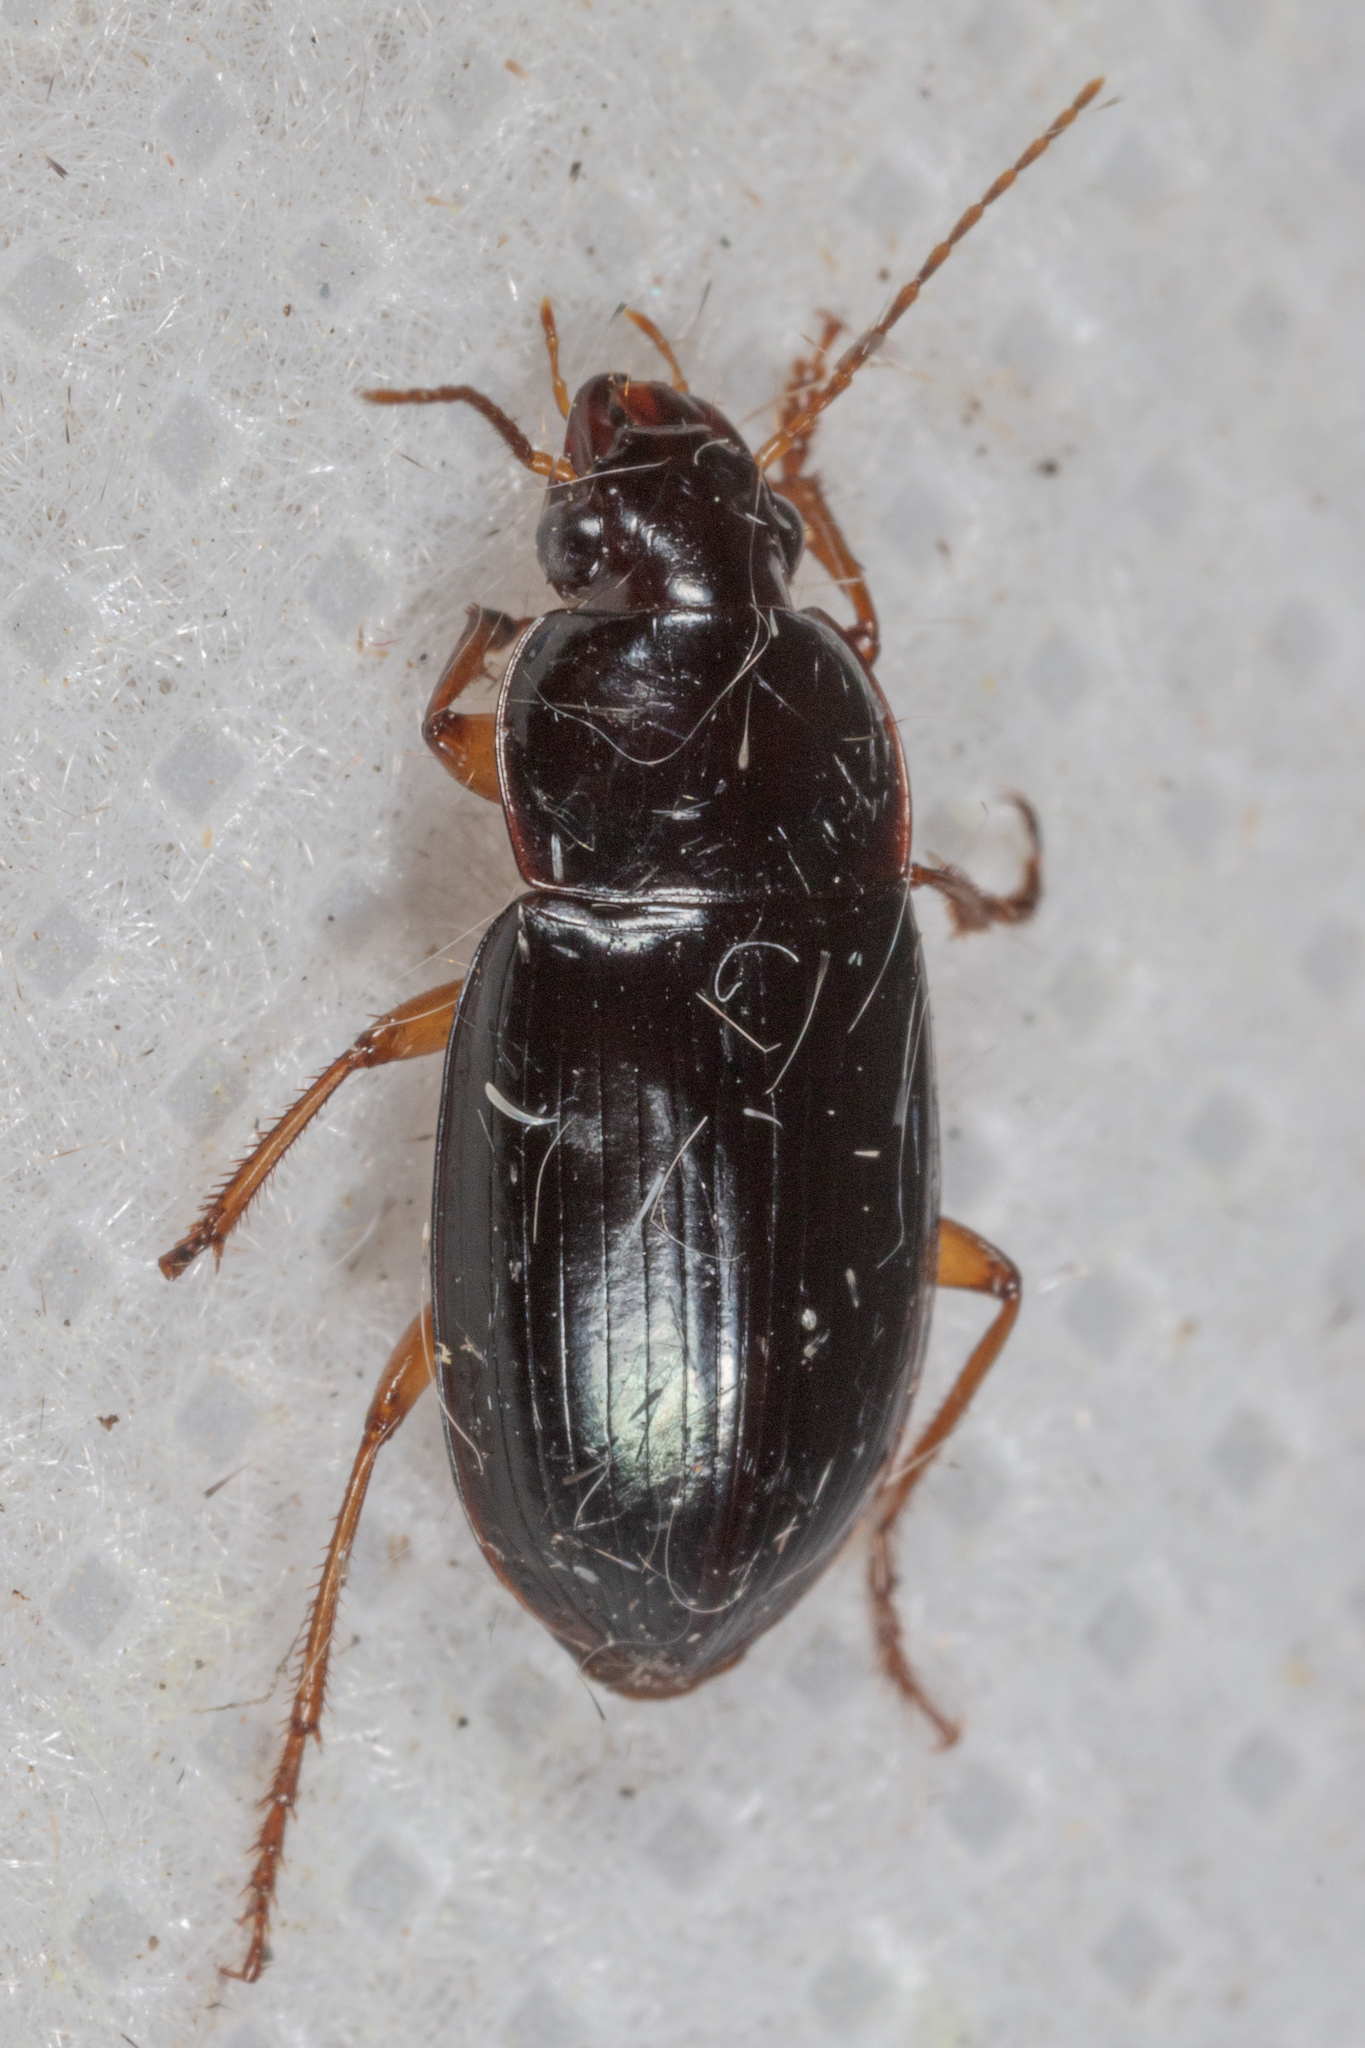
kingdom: Animalia
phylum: Arthropoda
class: Insecta
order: Coleoptera
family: Carabidae
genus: Notiobia
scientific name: Notiobia terminata
